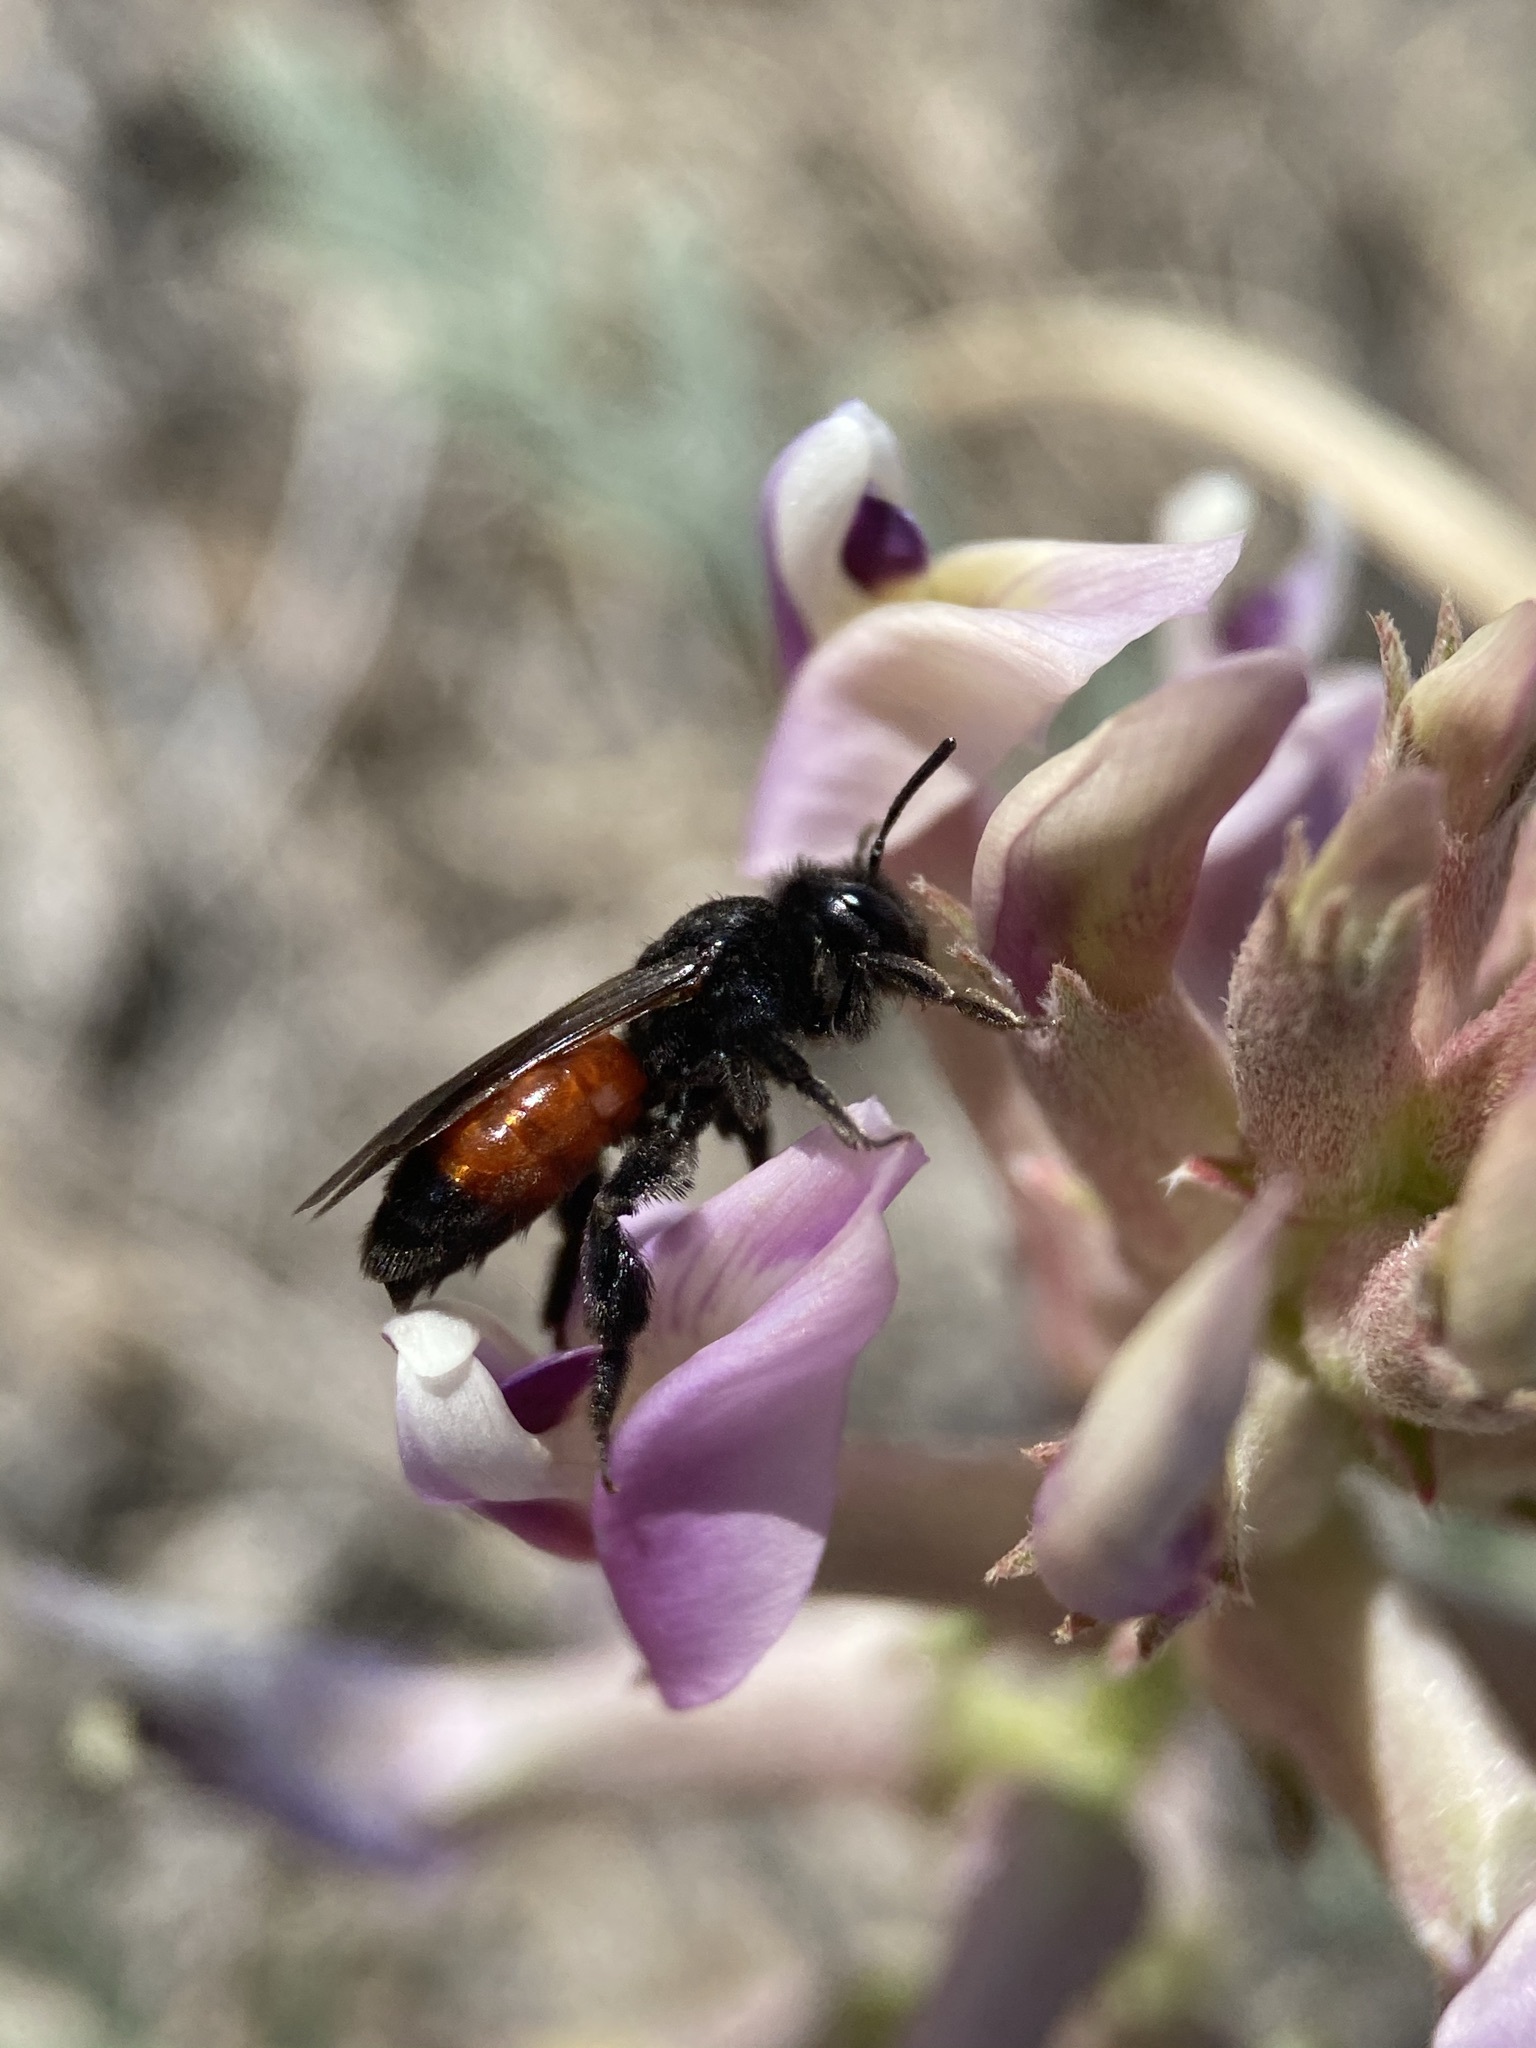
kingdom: Animalia
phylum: Arthropoda
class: Insecta
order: Hymenoptera
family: Andrenidae
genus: Andrena
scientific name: Andrena prima
